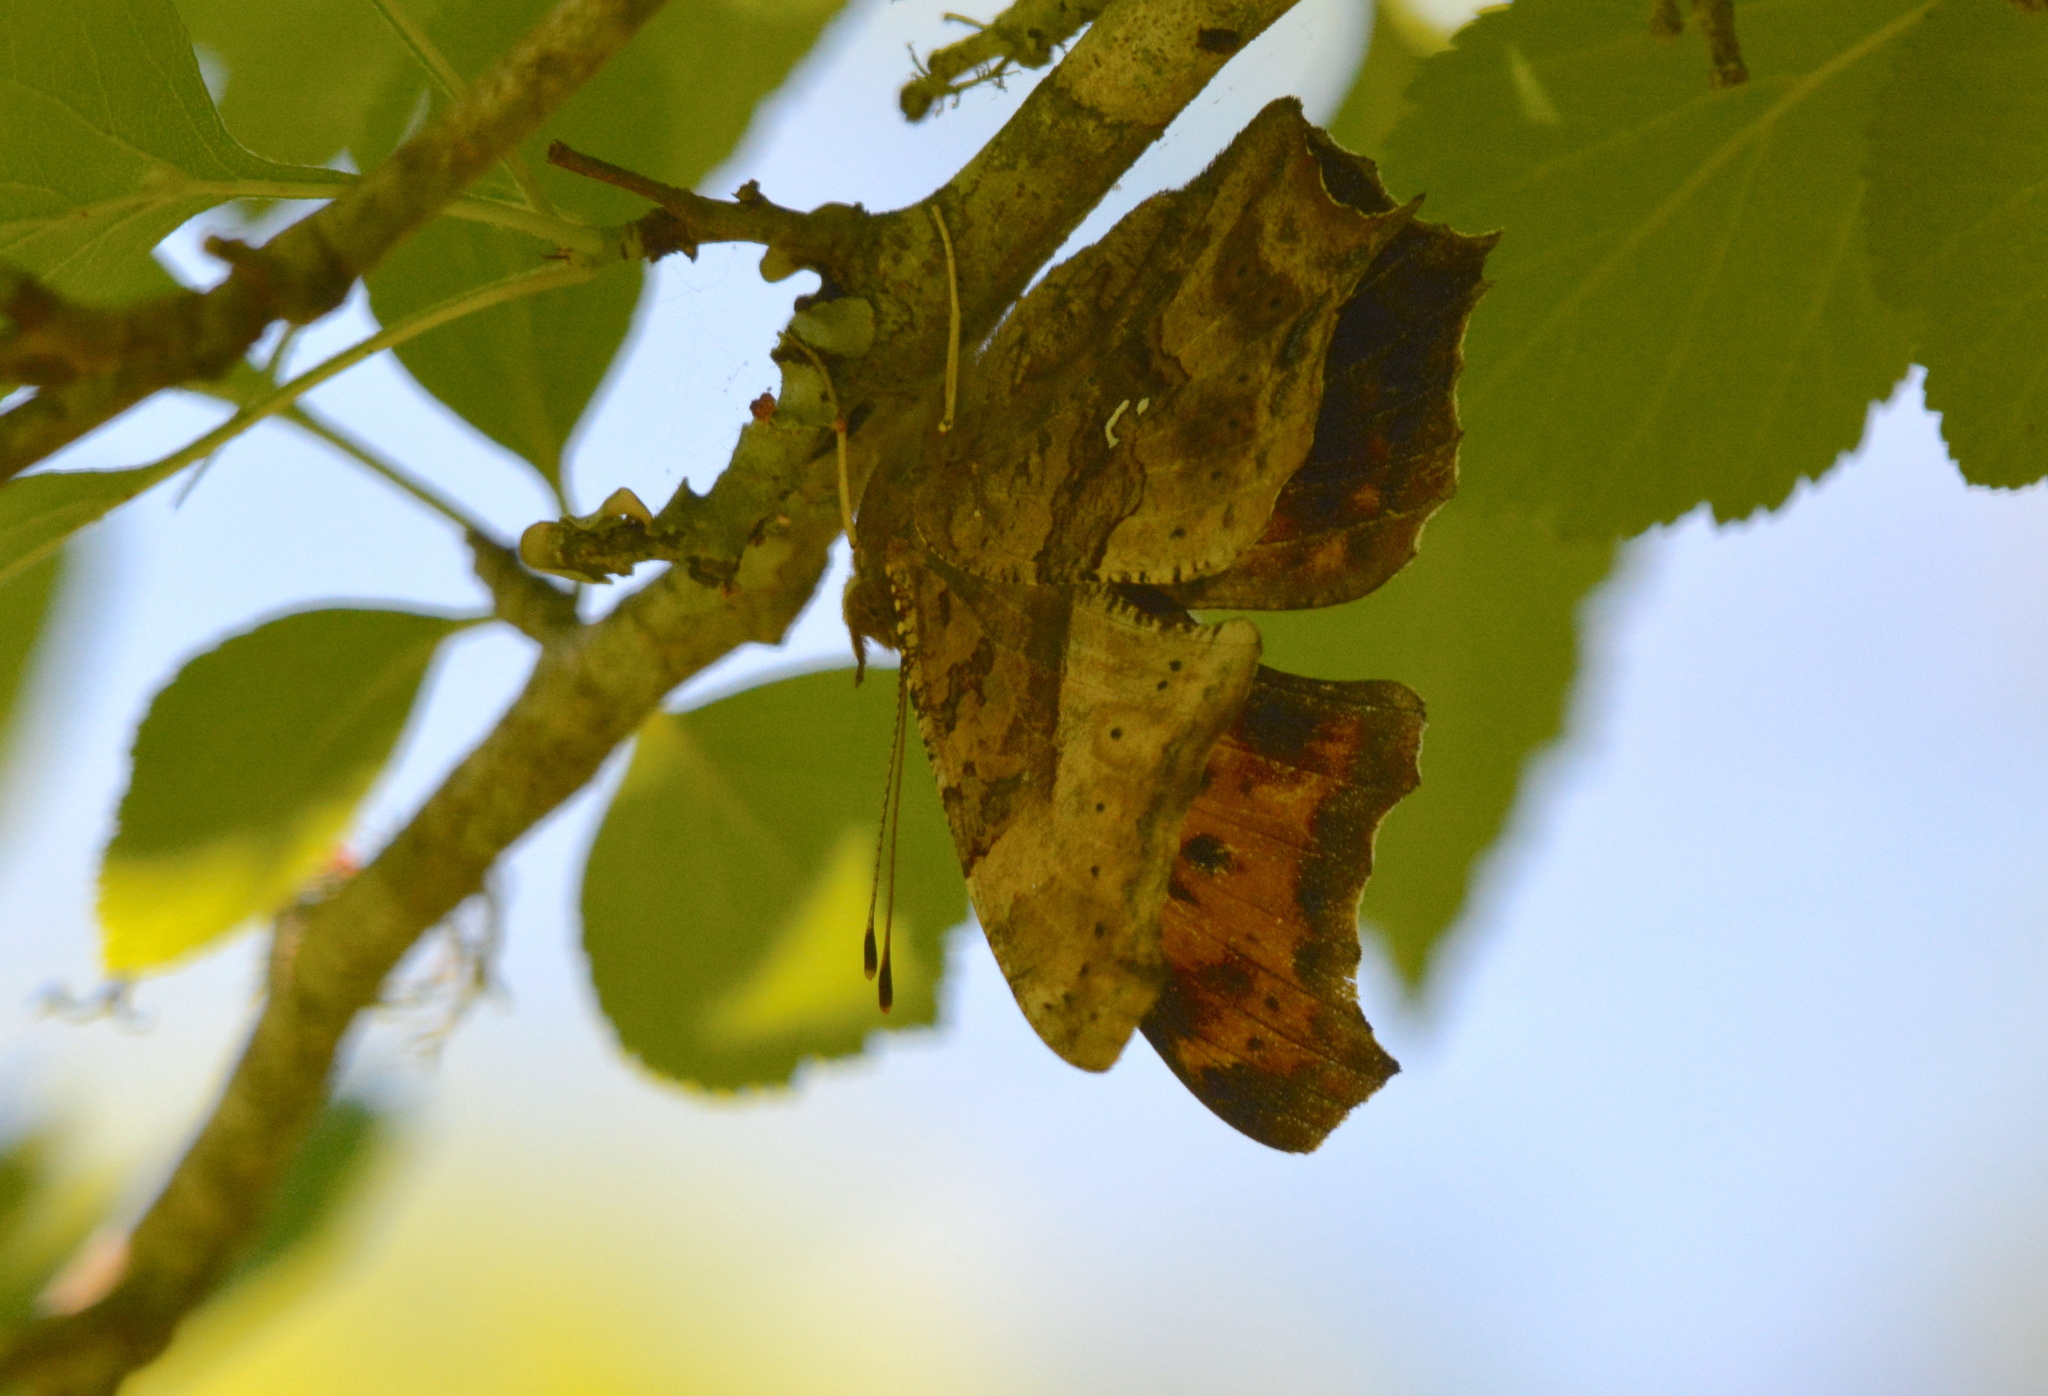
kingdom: Animalia
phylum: Arthropoda
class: Insecta
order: Lepidoptera
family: Nymphalidae
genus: Polygonia
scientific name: Polygonia interrogationis
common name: Question mark
